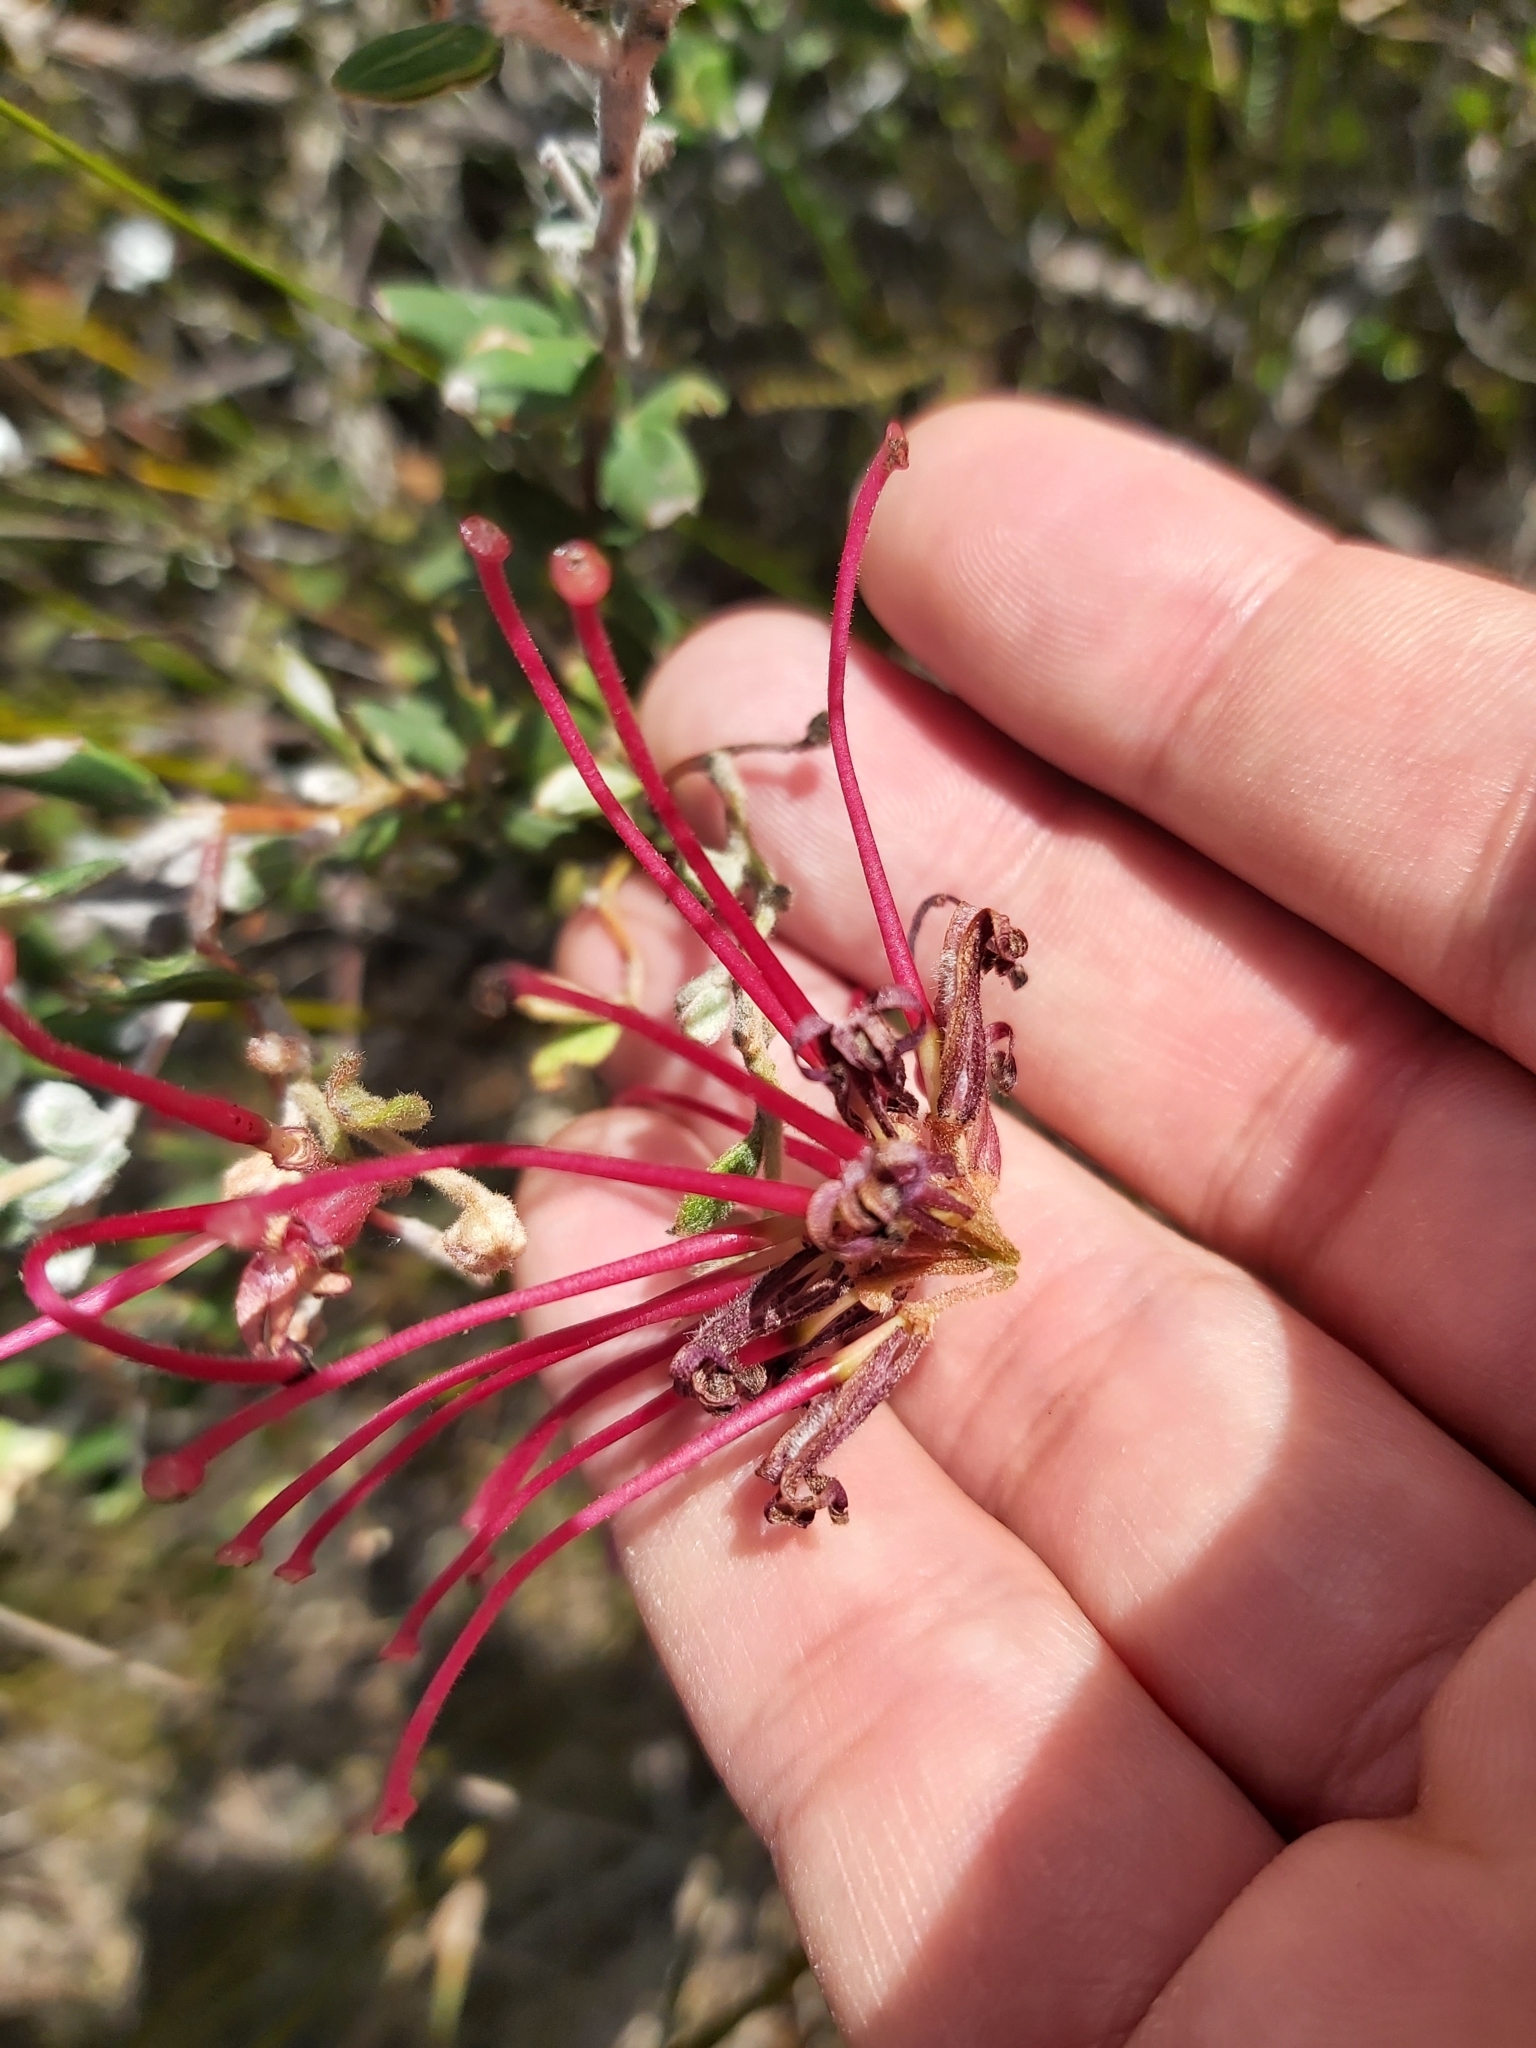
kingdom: Plantae
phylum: Tracheophyta
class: Magnoliopsida
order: Proteales
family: Proteaceae
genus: Grevillea
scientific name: Grevillea speciosa
